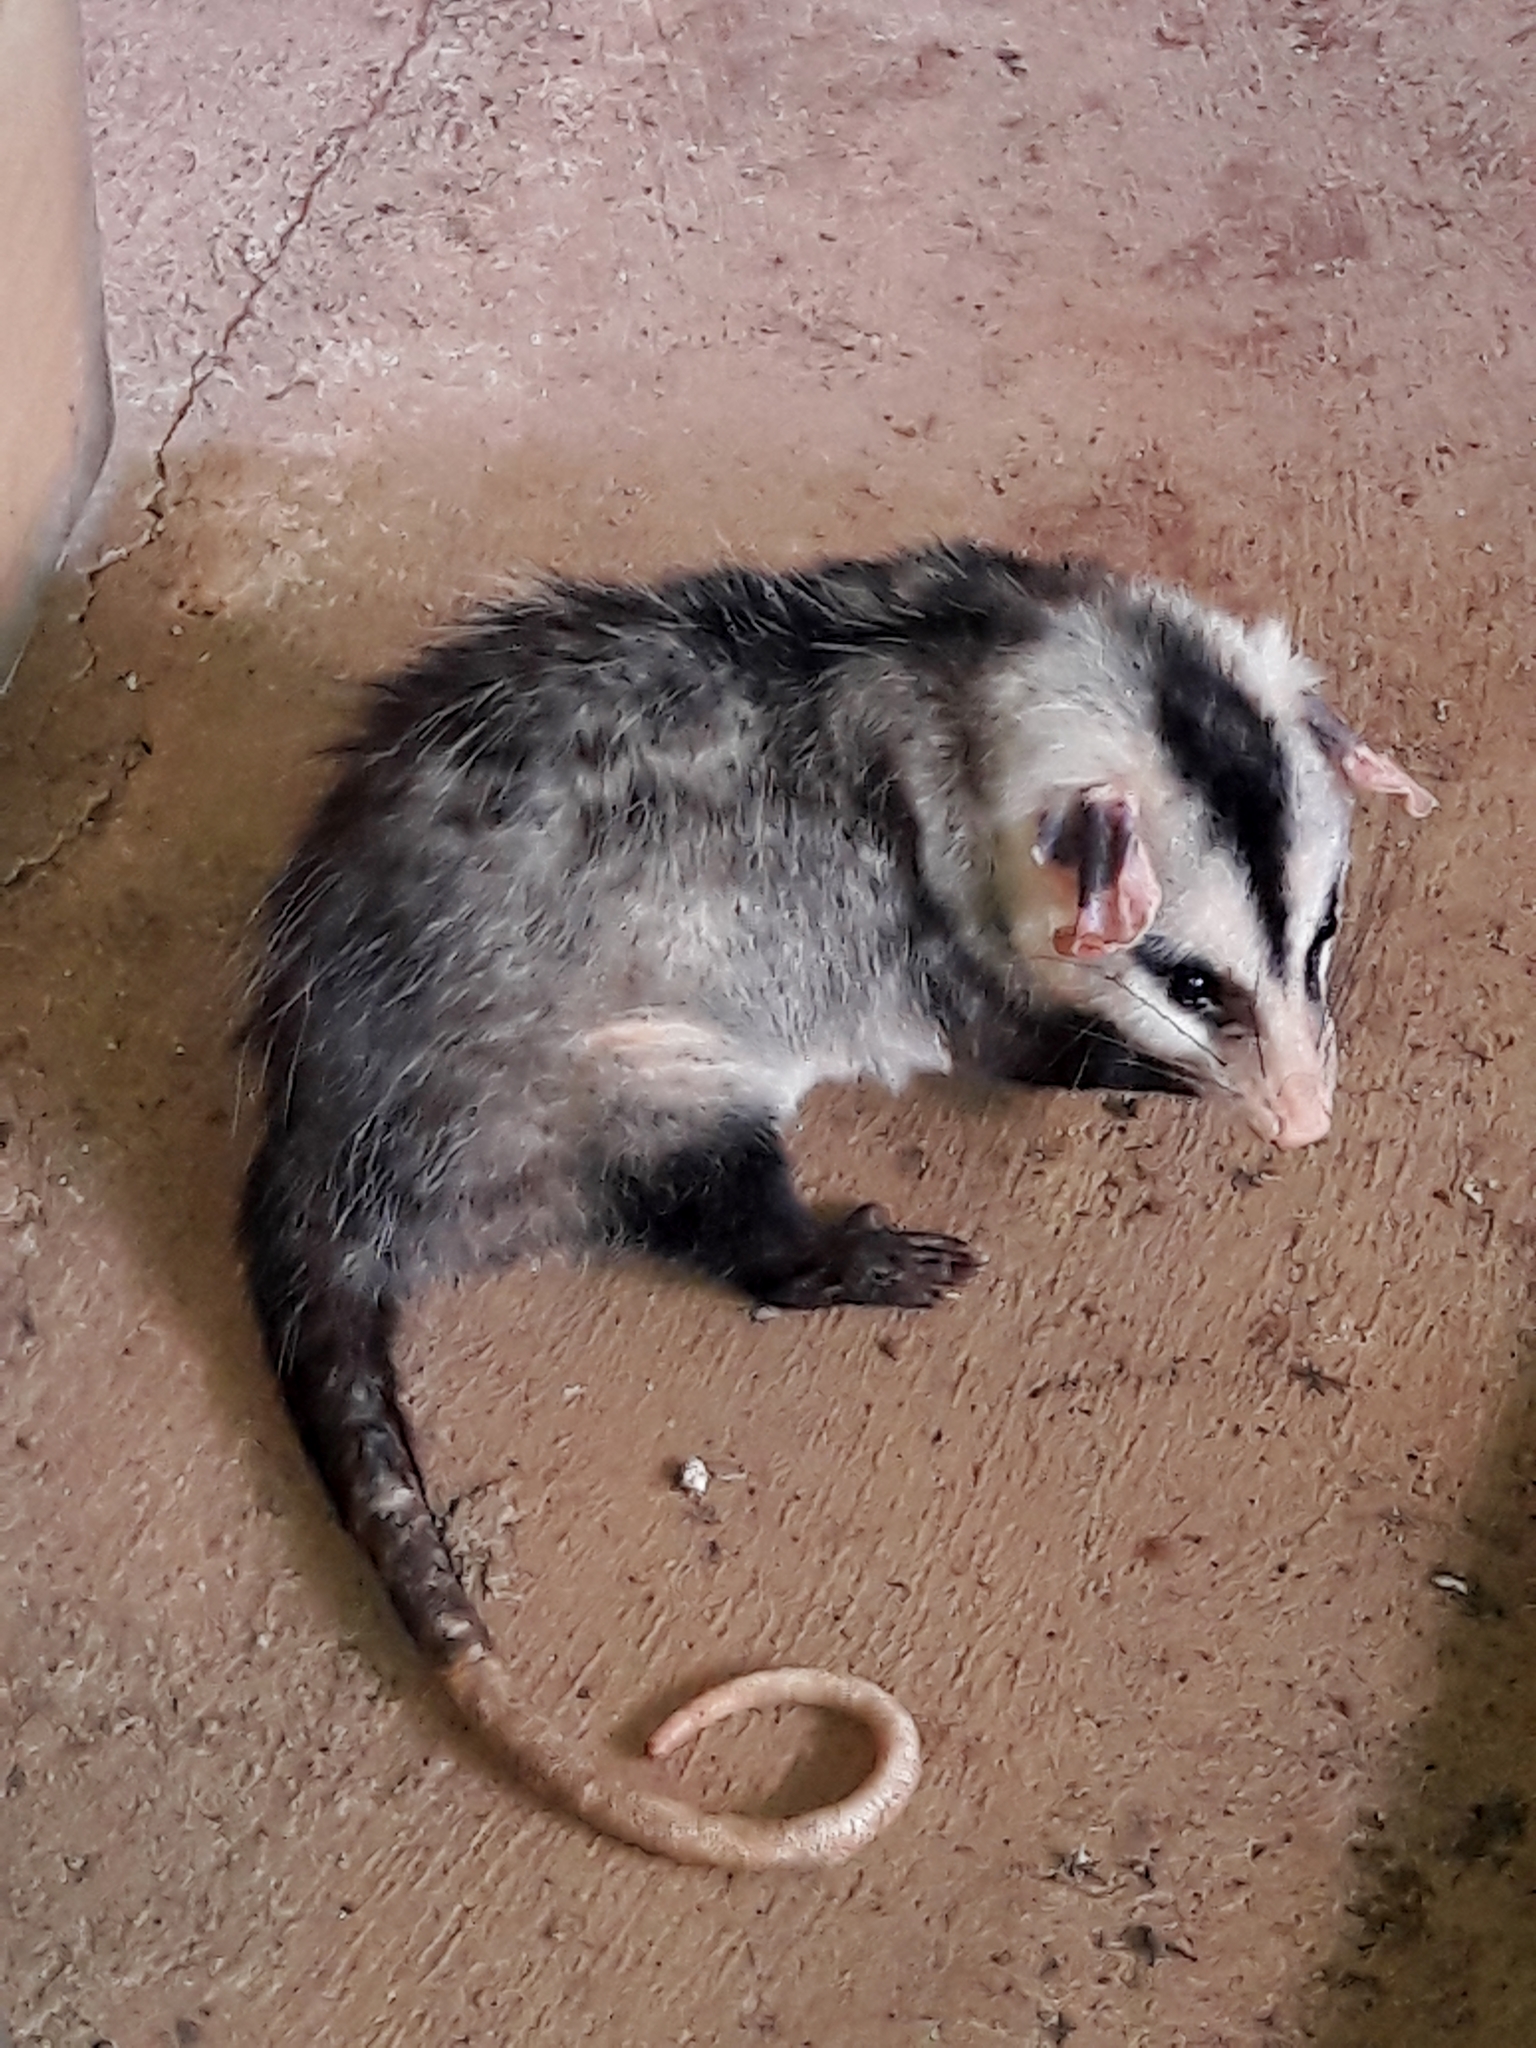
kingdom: Animalia
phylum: Chordata
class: Mammalia
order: Didelphimorphia
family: Didelphidae
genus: Didelphis
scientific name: Didelphis albiventris
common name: White-eared opossum
